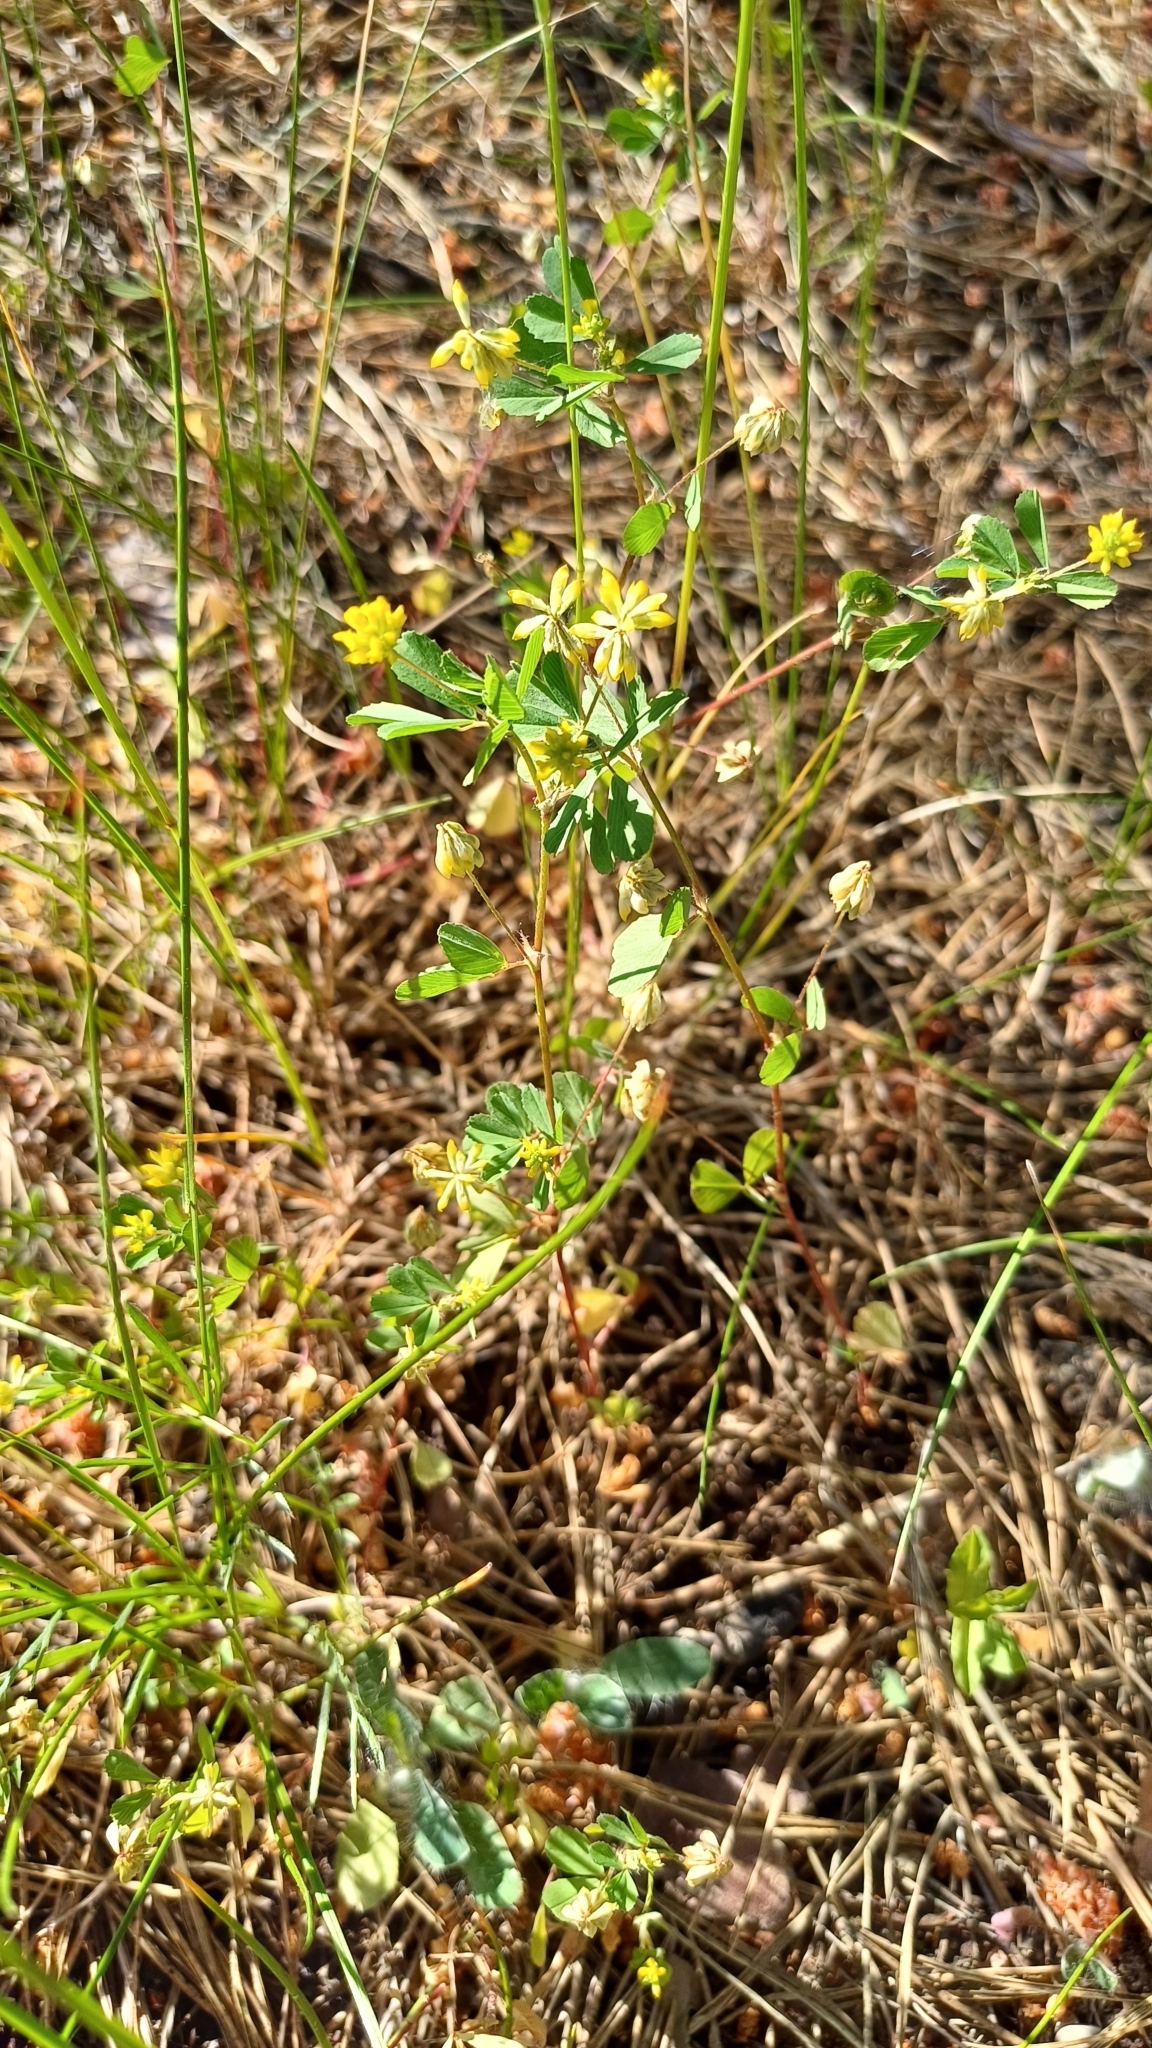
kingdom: Plantae
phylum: Tracheophyta
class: Magnoliopsida
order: Fabales
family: Fabaceae
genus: Trifolium
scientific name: Trifolium dubium
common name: Suckling clover
